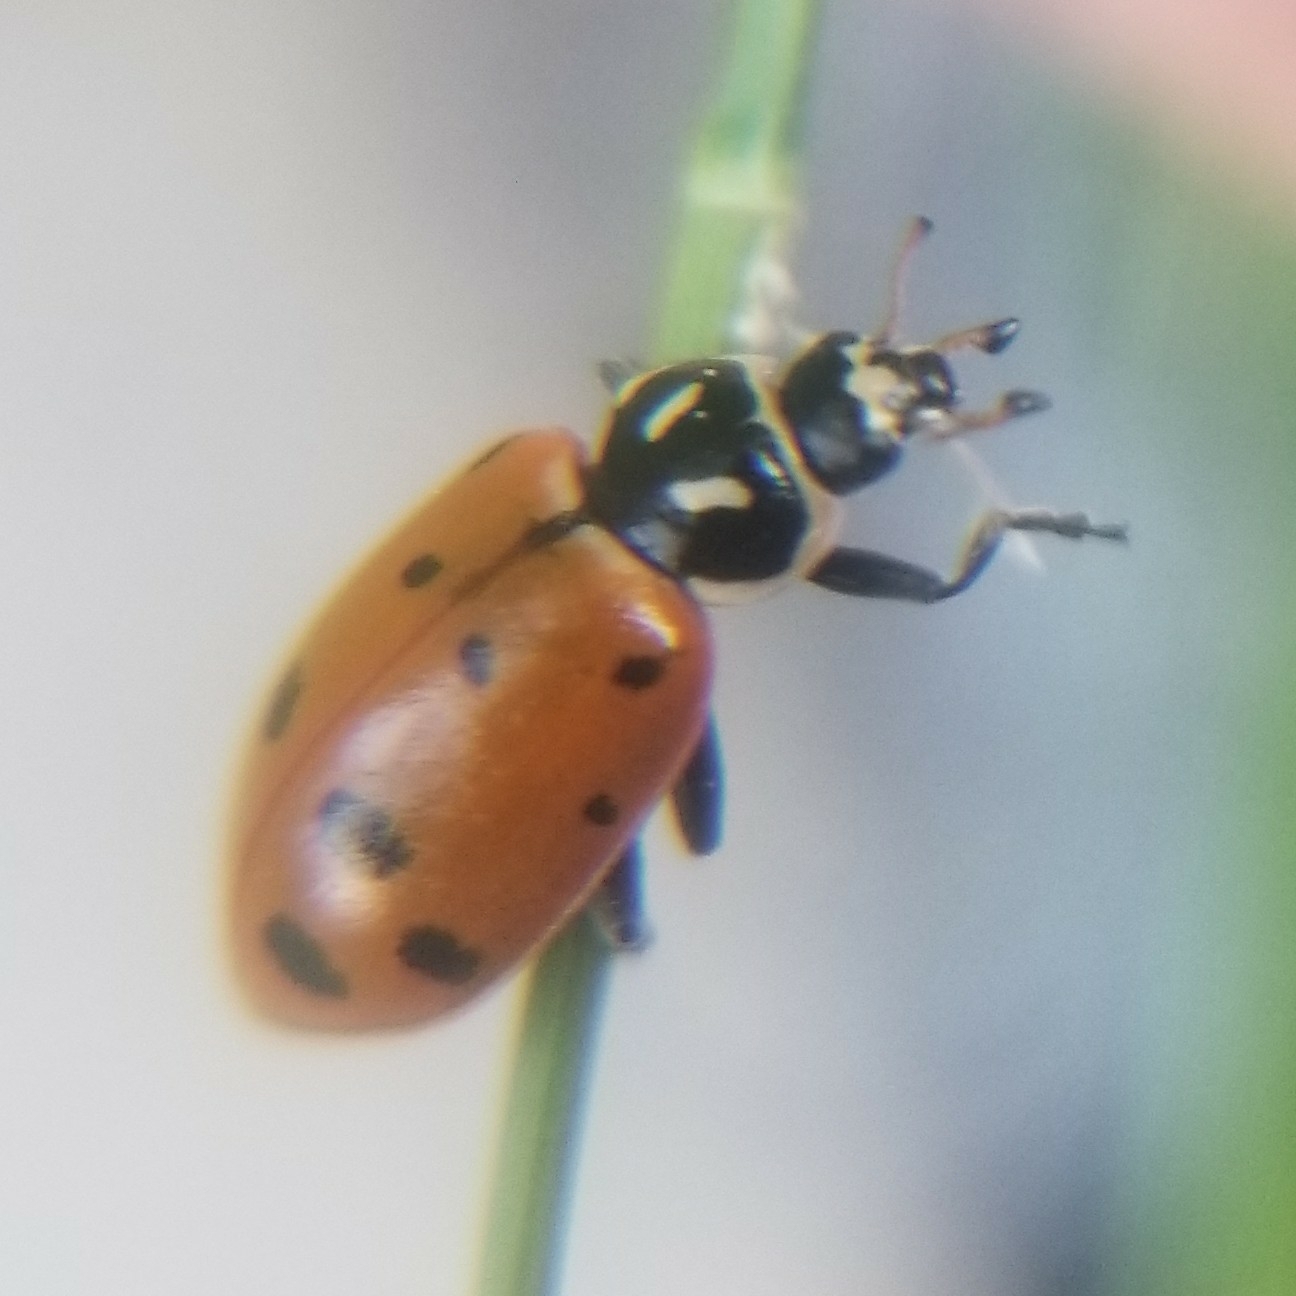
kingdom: Animalia
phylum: Arthropoda
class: Insecta
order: Coleoptera
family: Coccinellidae
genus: Hippodamia
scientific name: Hippodamia convergens
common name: Convergent lady beetle
